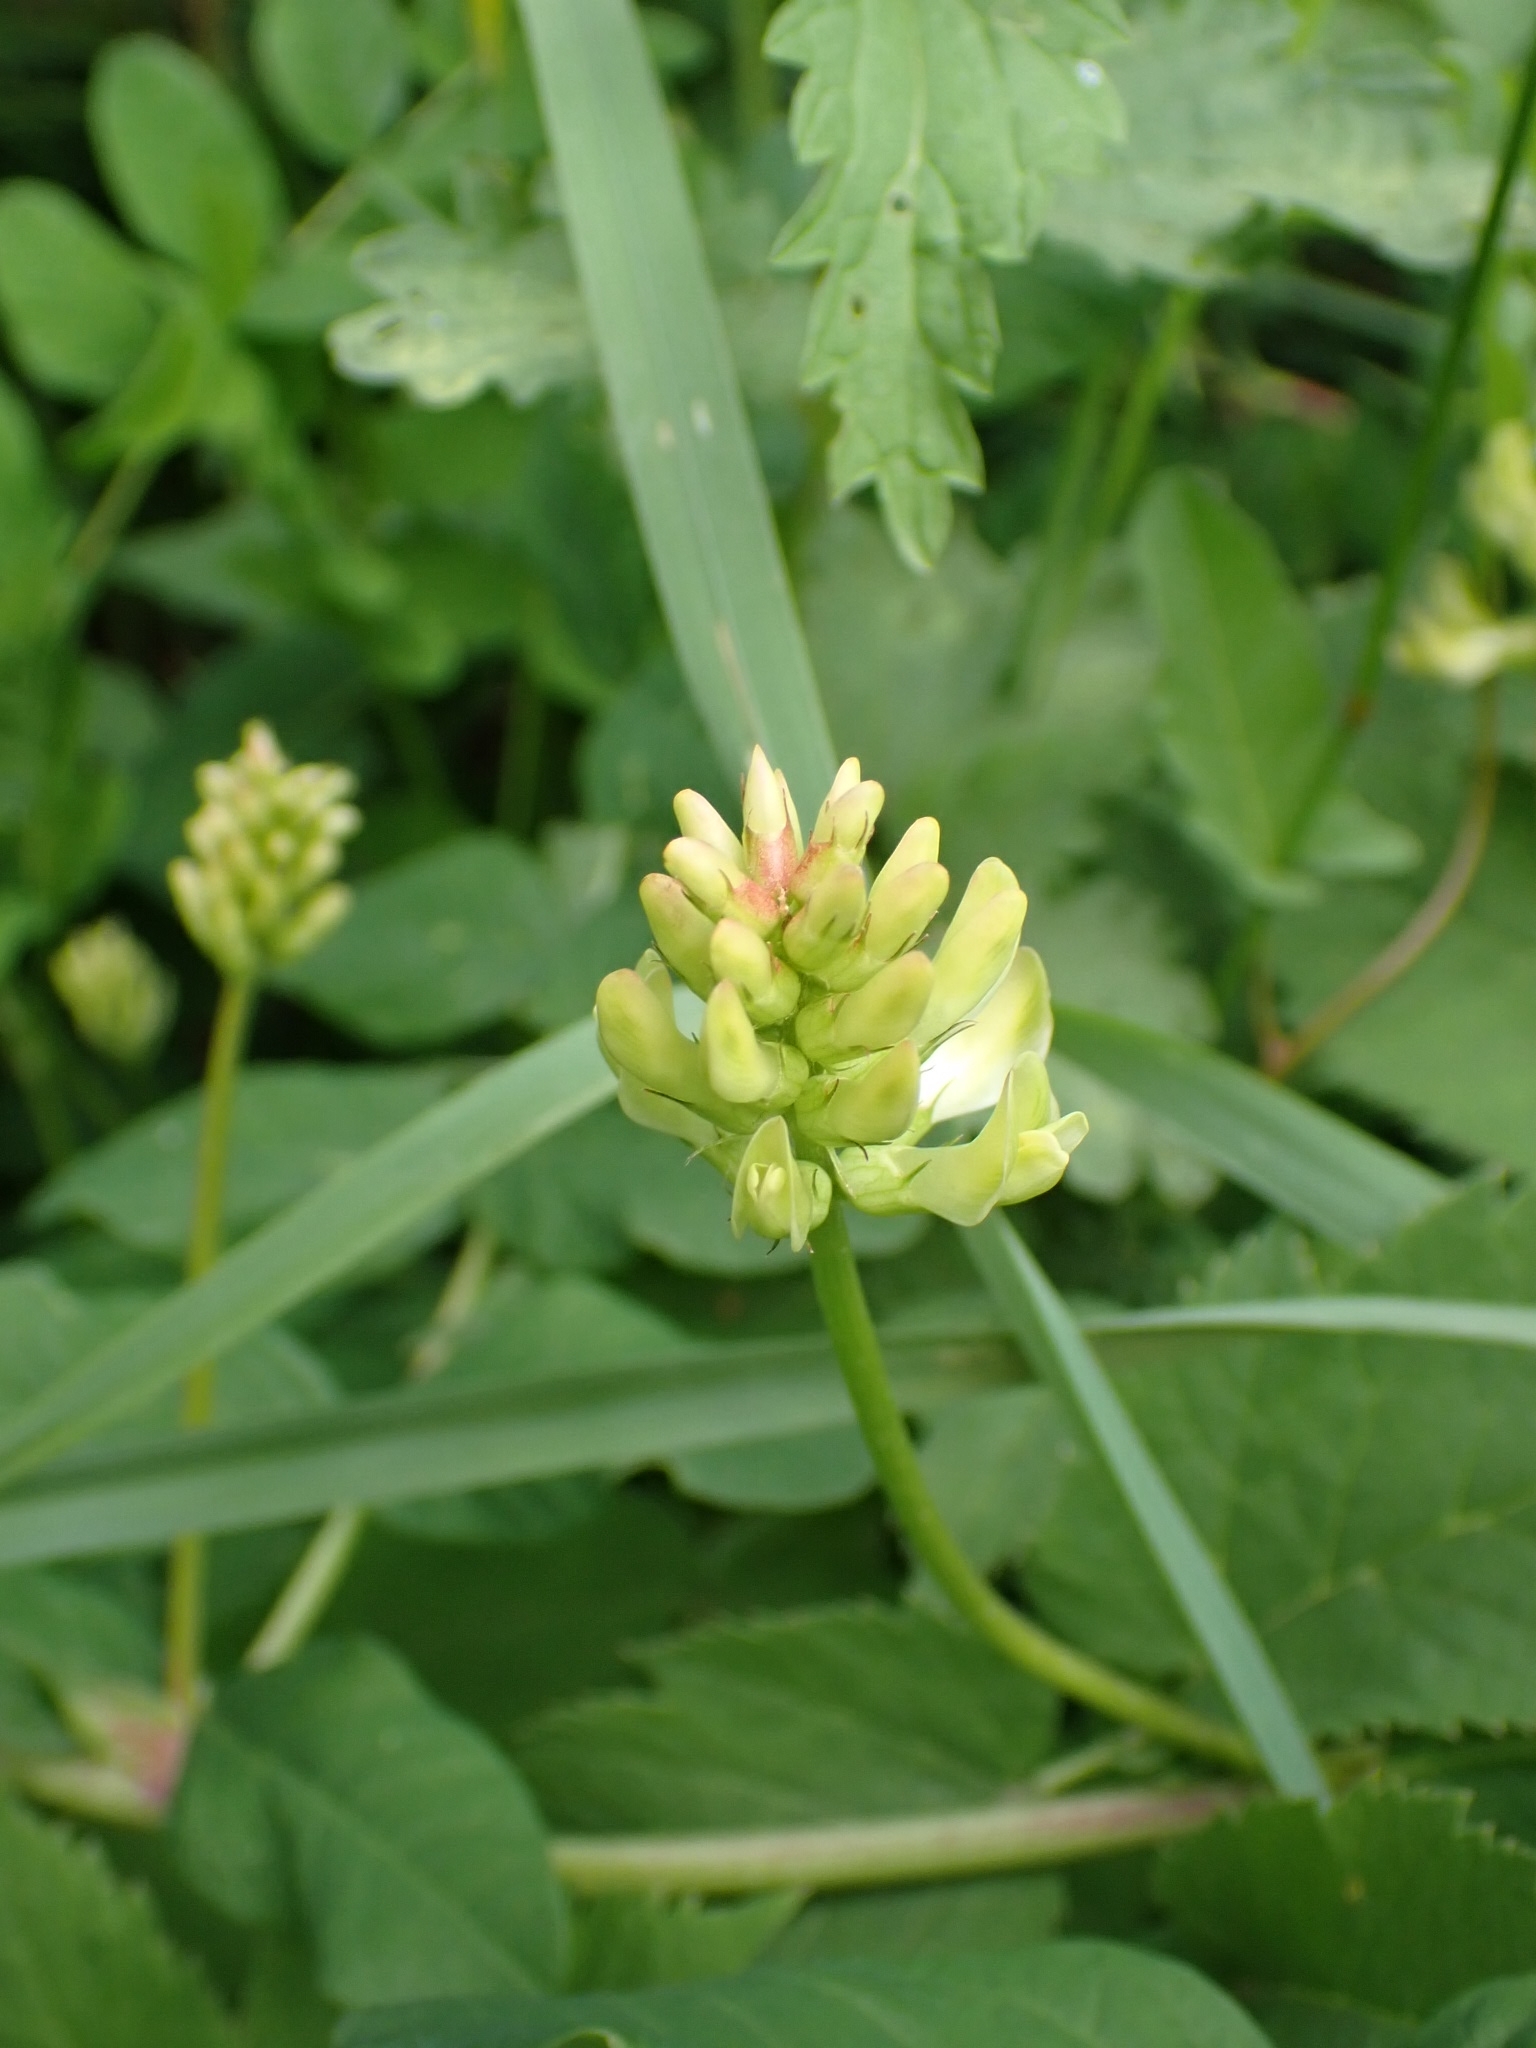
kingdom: Plantae
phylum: Tracheophyta
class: Magnoliopsida
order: Fabales
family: Fabaceae
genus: Astragalus
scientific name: Astragalus glycyphyllos
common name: Wild liquorice
